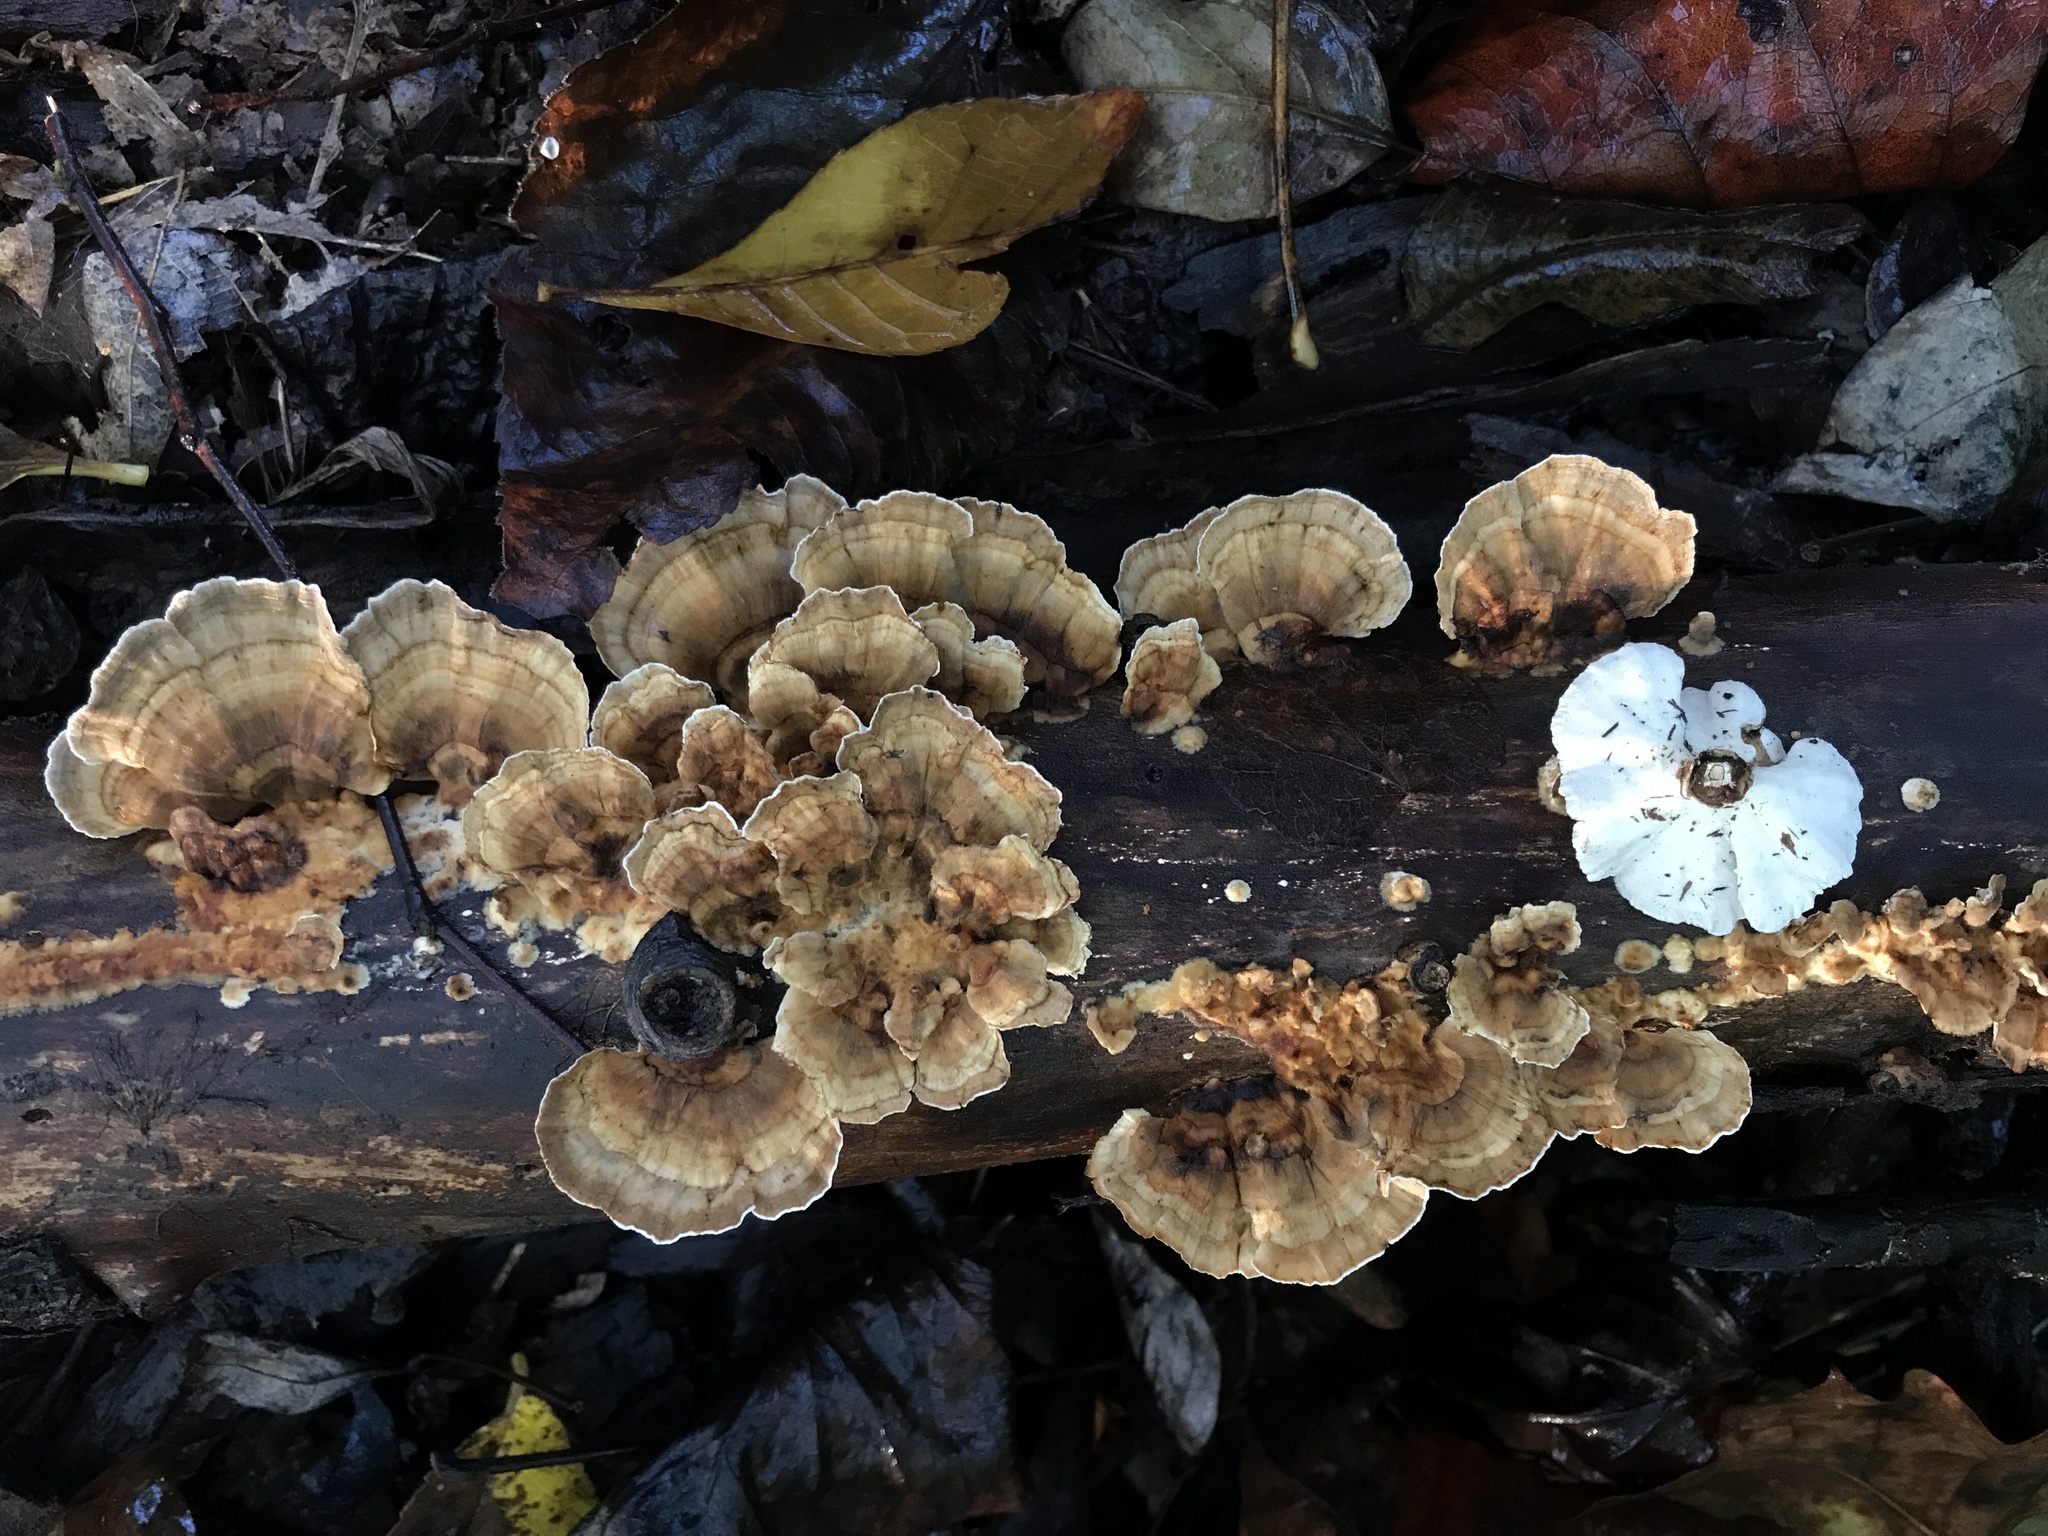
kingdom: Fungi
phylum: Basidiomycota
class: Agaricomycetes
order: Polyporales
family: Polyporaceae
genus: Trametes
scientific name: Trametes ochracea
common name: Ochre bracket
